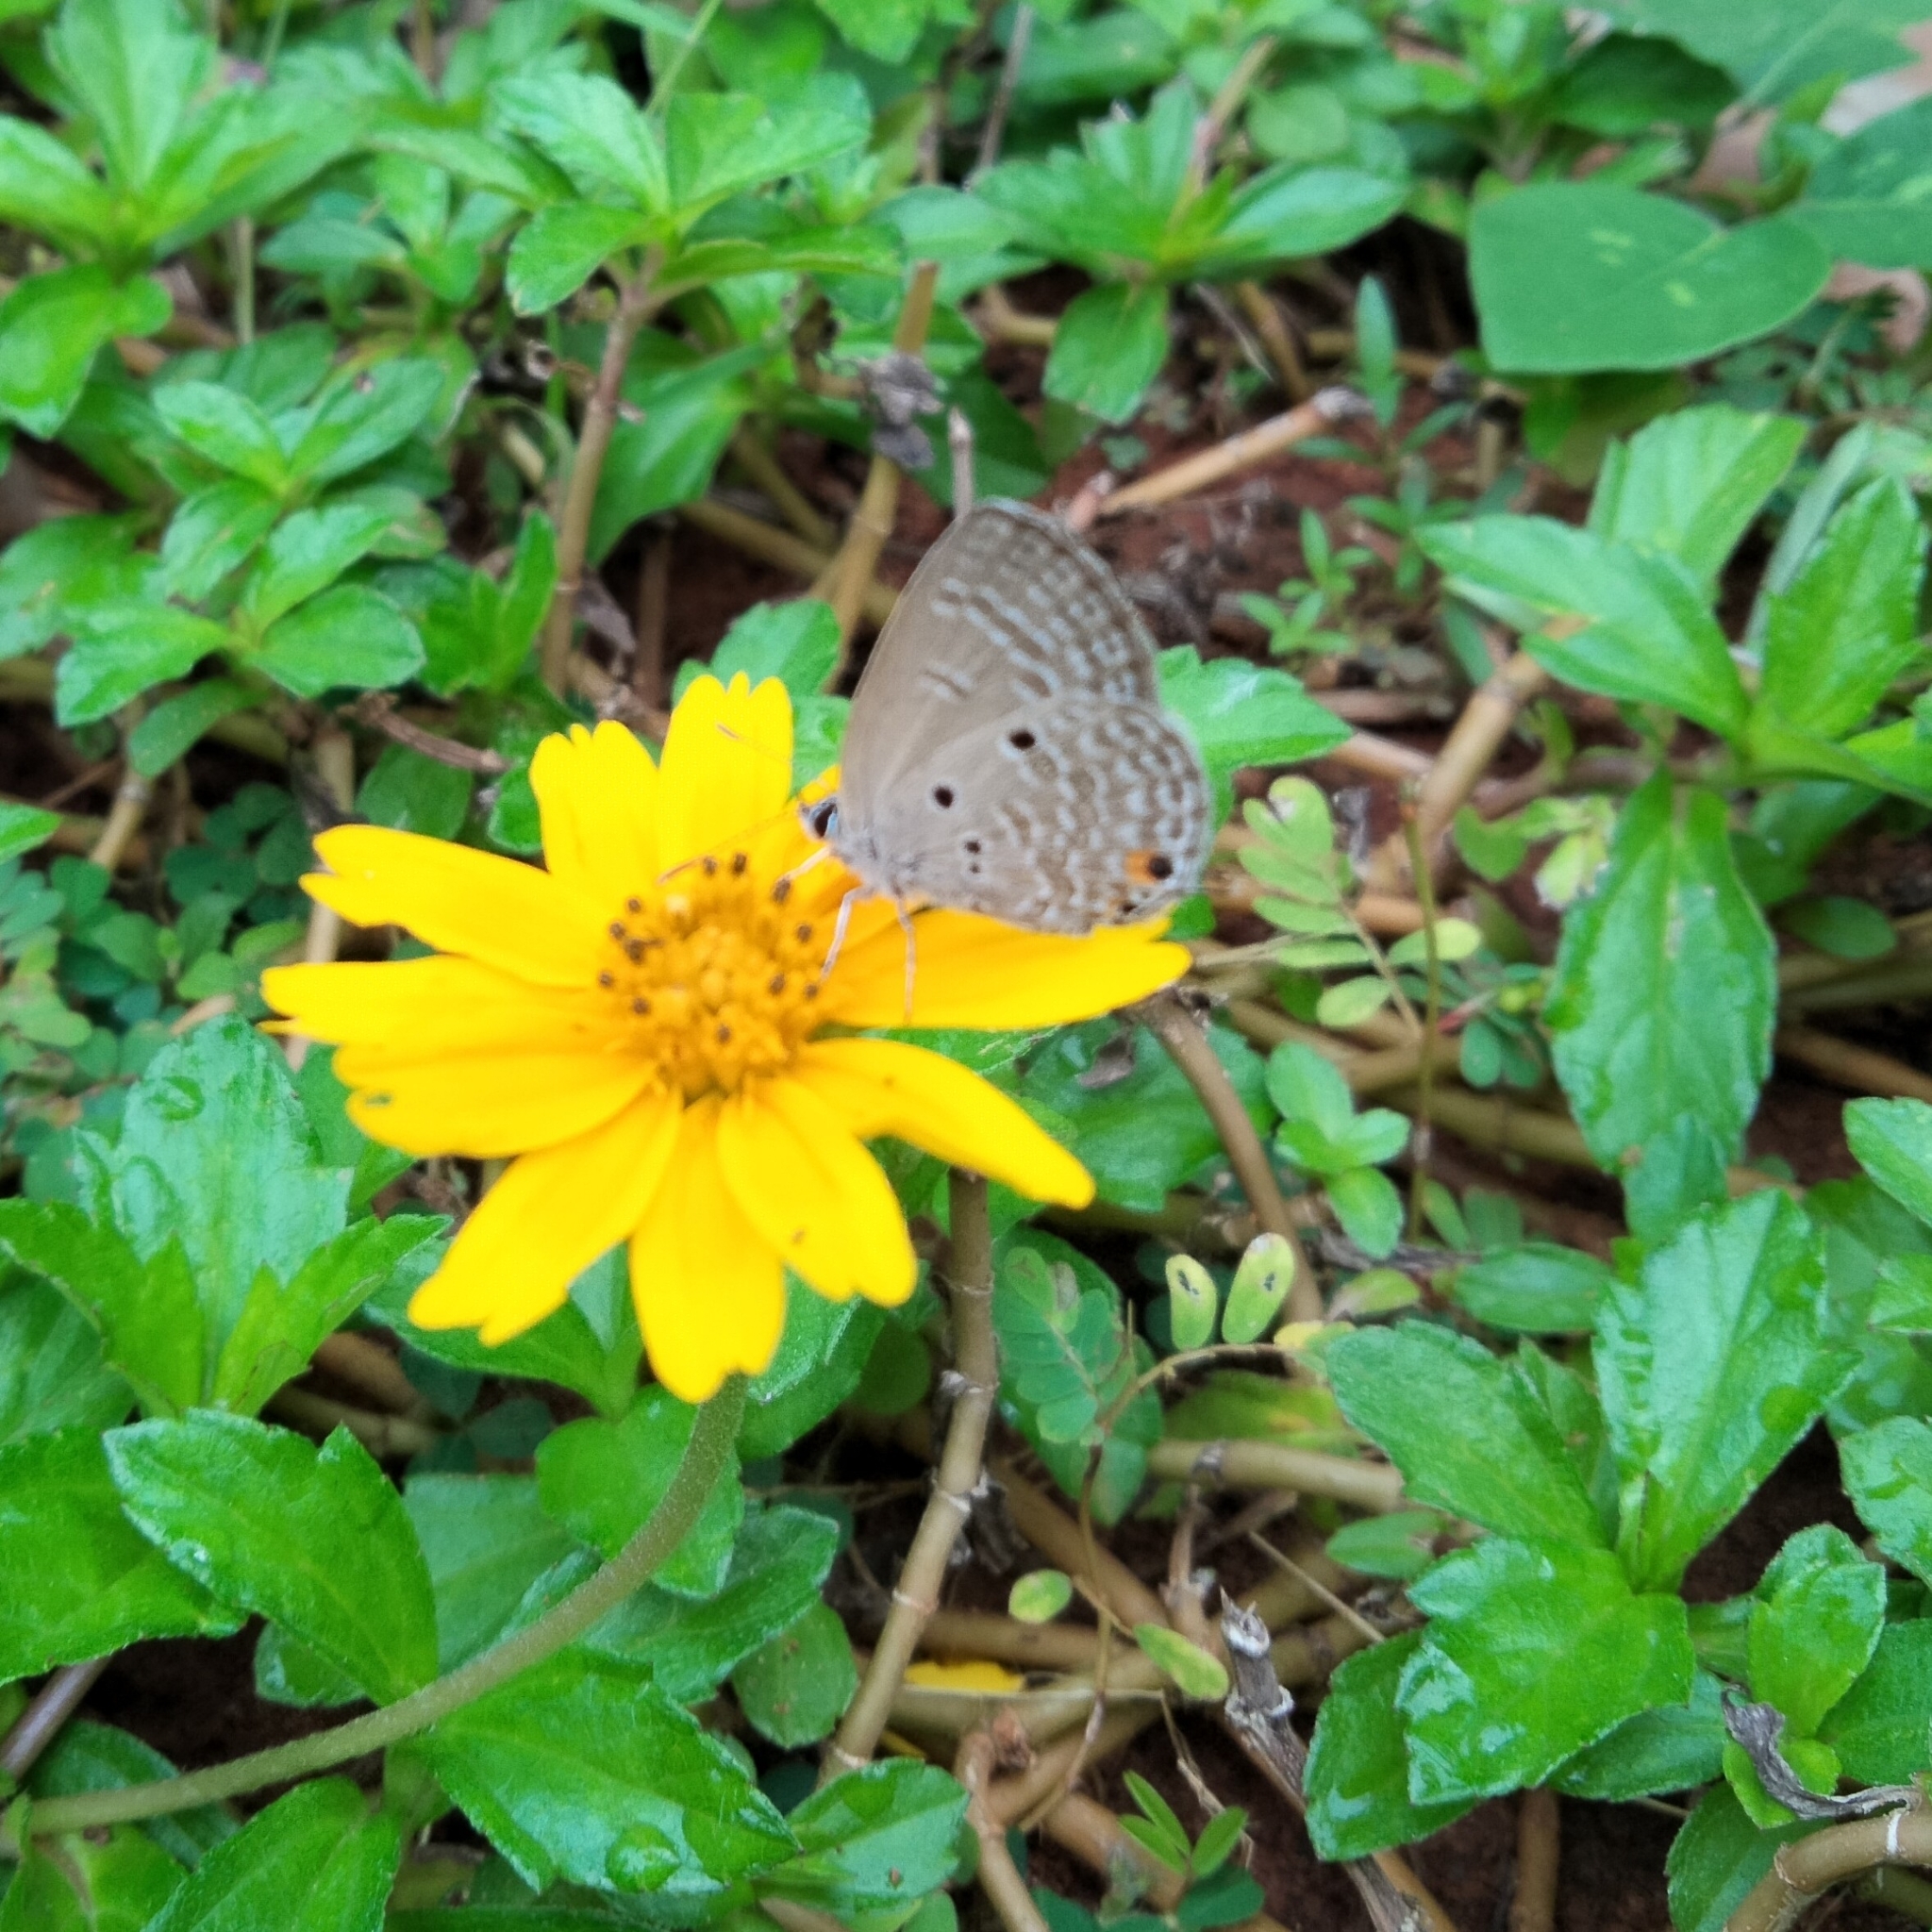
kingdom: Animalia
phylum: Arthropoda
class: Insecta
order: Lepidoptera
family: Lycaenidae
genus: Luthrodes
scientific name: Luthrodes pandava
